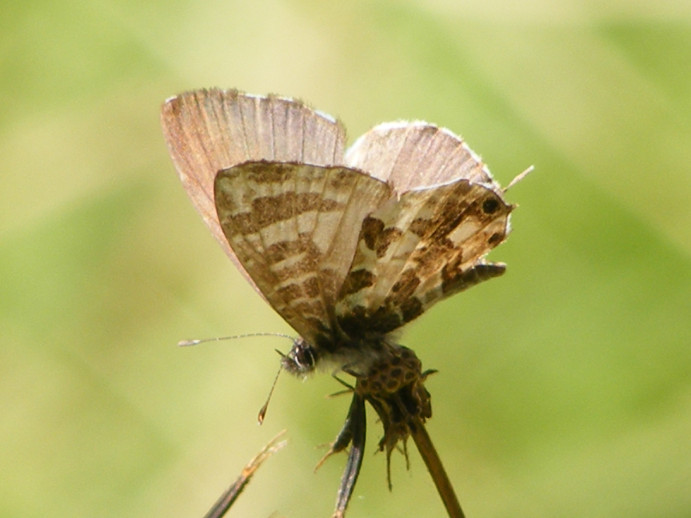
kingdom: Animalia
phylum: Arthropoda
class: Insecta
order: Lepidoptera
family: Lycaenidae
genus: Cacyreus
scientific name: Cacyreus lingeus
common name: Bush bronze
